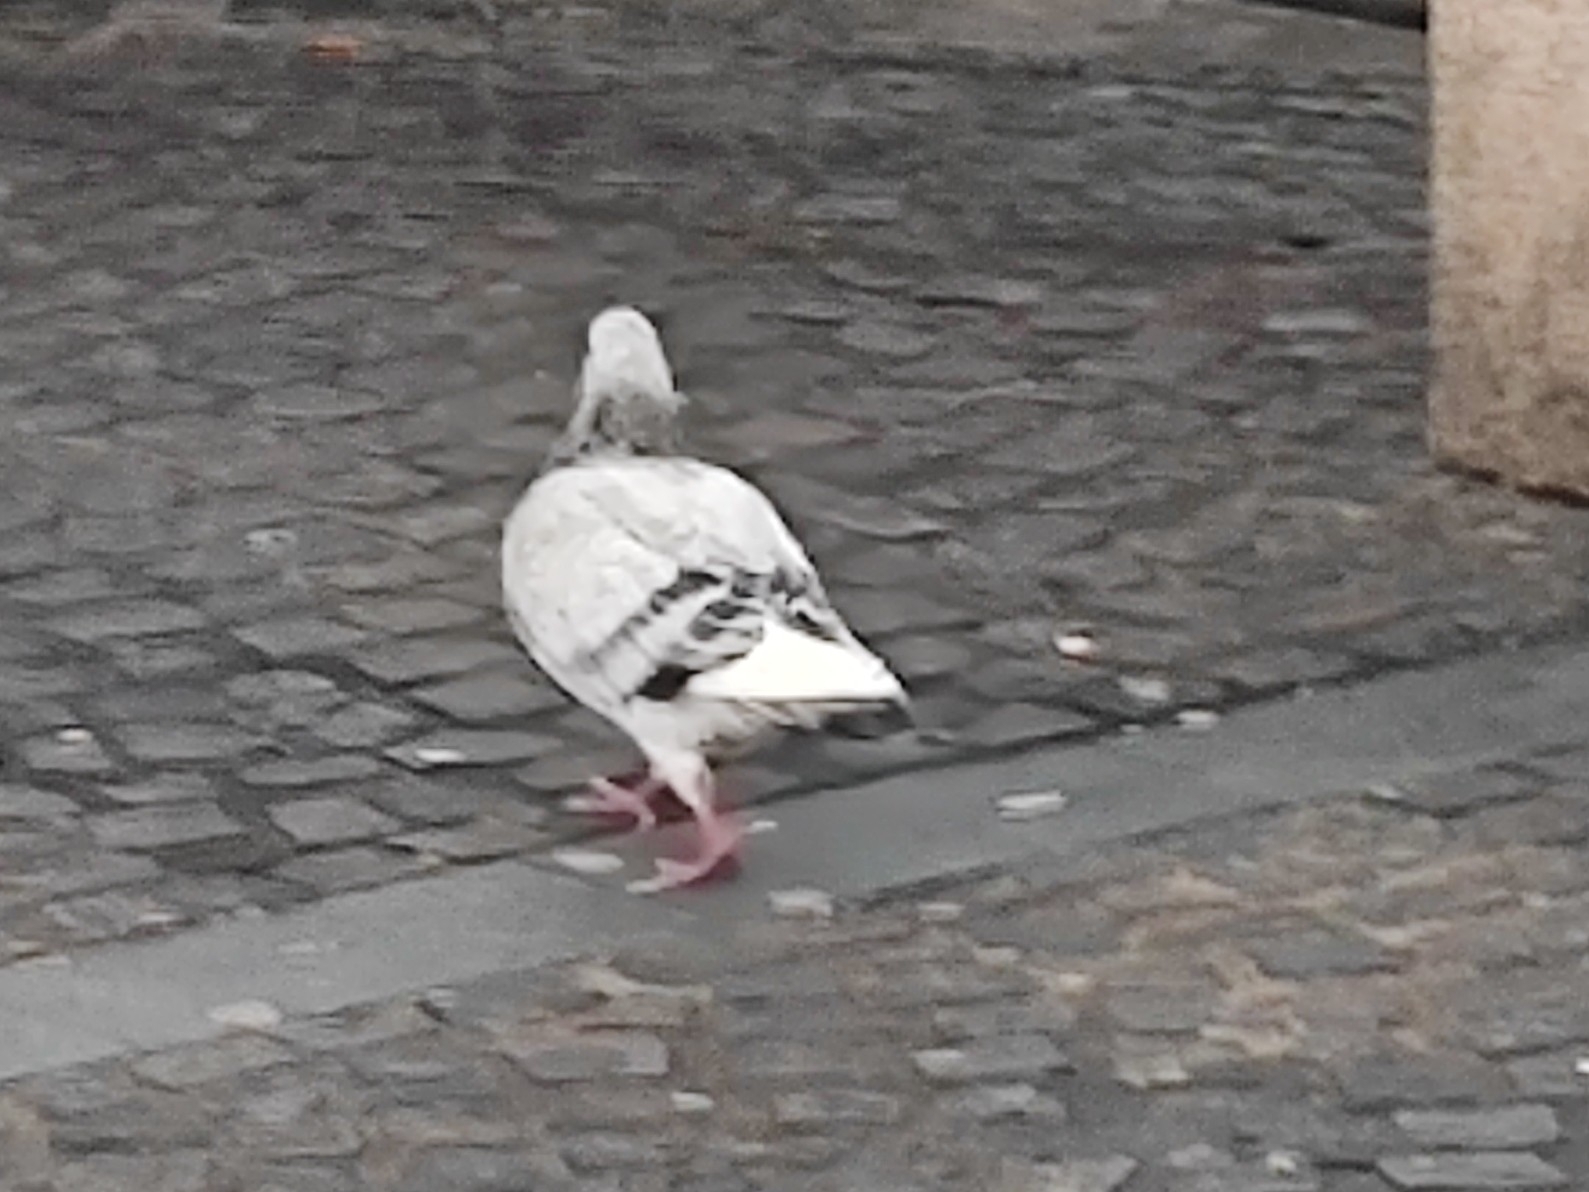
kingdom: Animalia
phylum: Chordata
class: Aves
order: Columbiformes
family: Columbidae
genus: Columba
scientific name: Columba livia
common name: Rock pigeon
